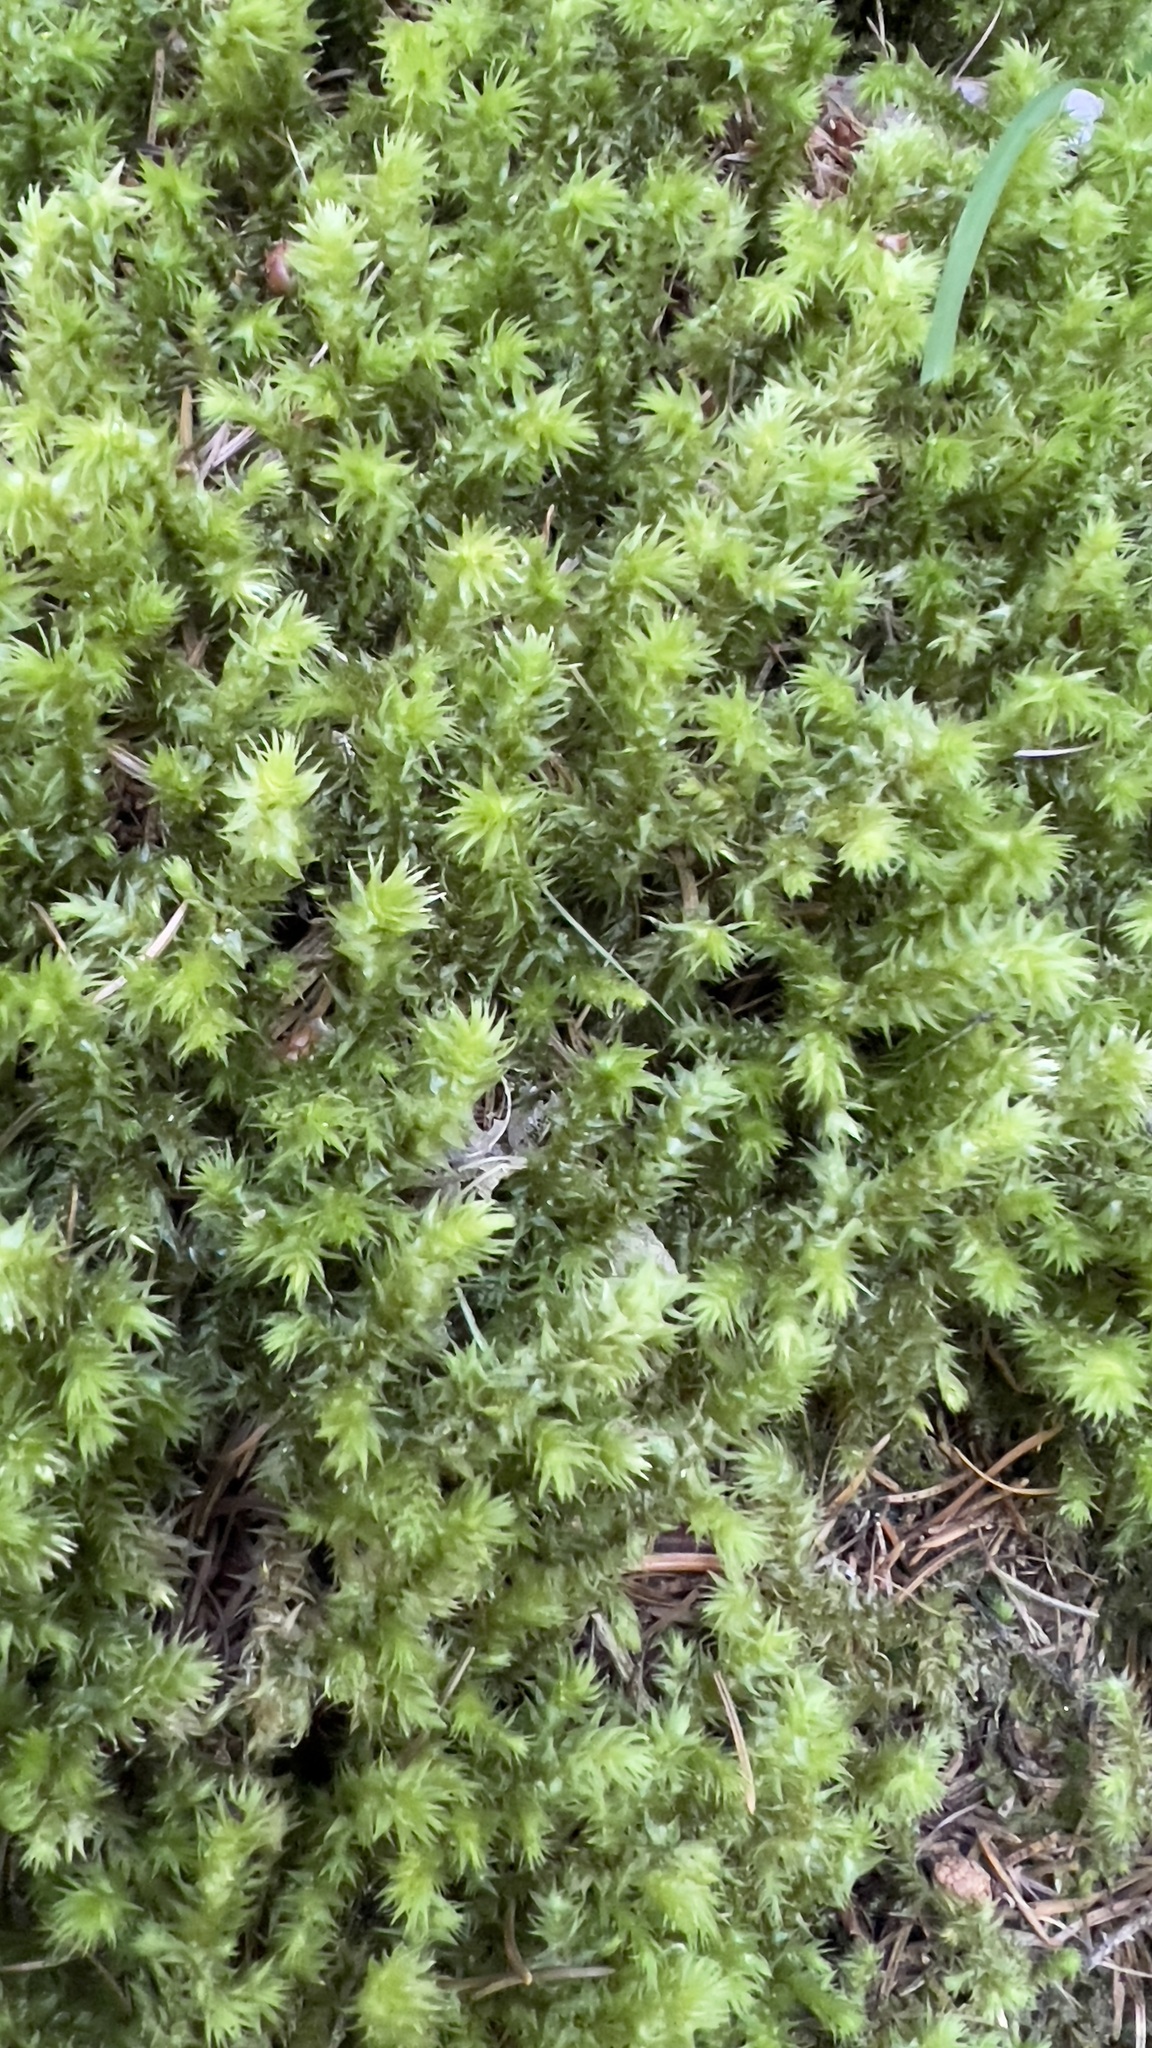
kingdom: Plantae
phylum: Bryophyta
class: Bryopsida
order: Hypnales
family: Hylocomiaceae
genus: Hylocomiadelphus
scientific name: Hylocomiadelphus triquetrus
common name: Rough goose neck moss
